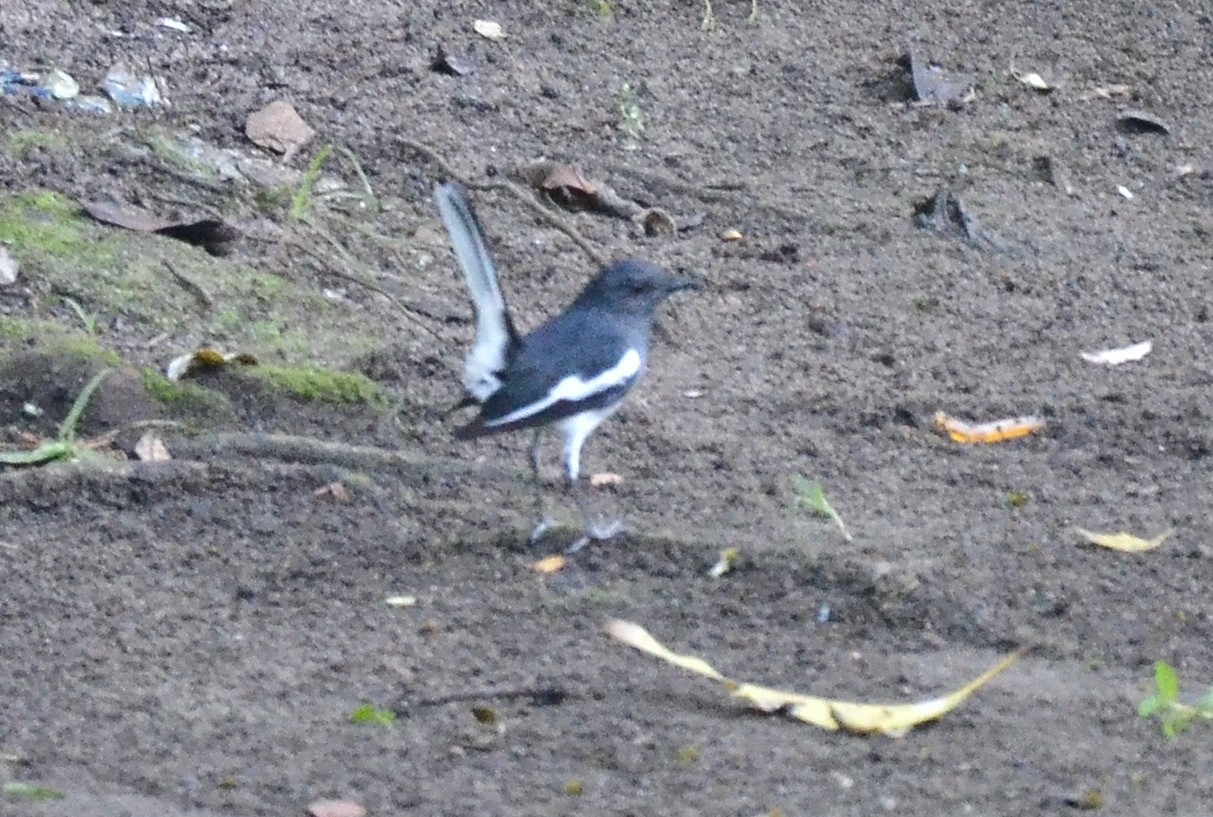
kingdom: Animalia
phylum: Chordata
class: Aves
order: Passeriformes
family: Muscicapidae
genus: Copsychus
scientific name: Copsychus saularis
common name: Oriental magpie-robin
